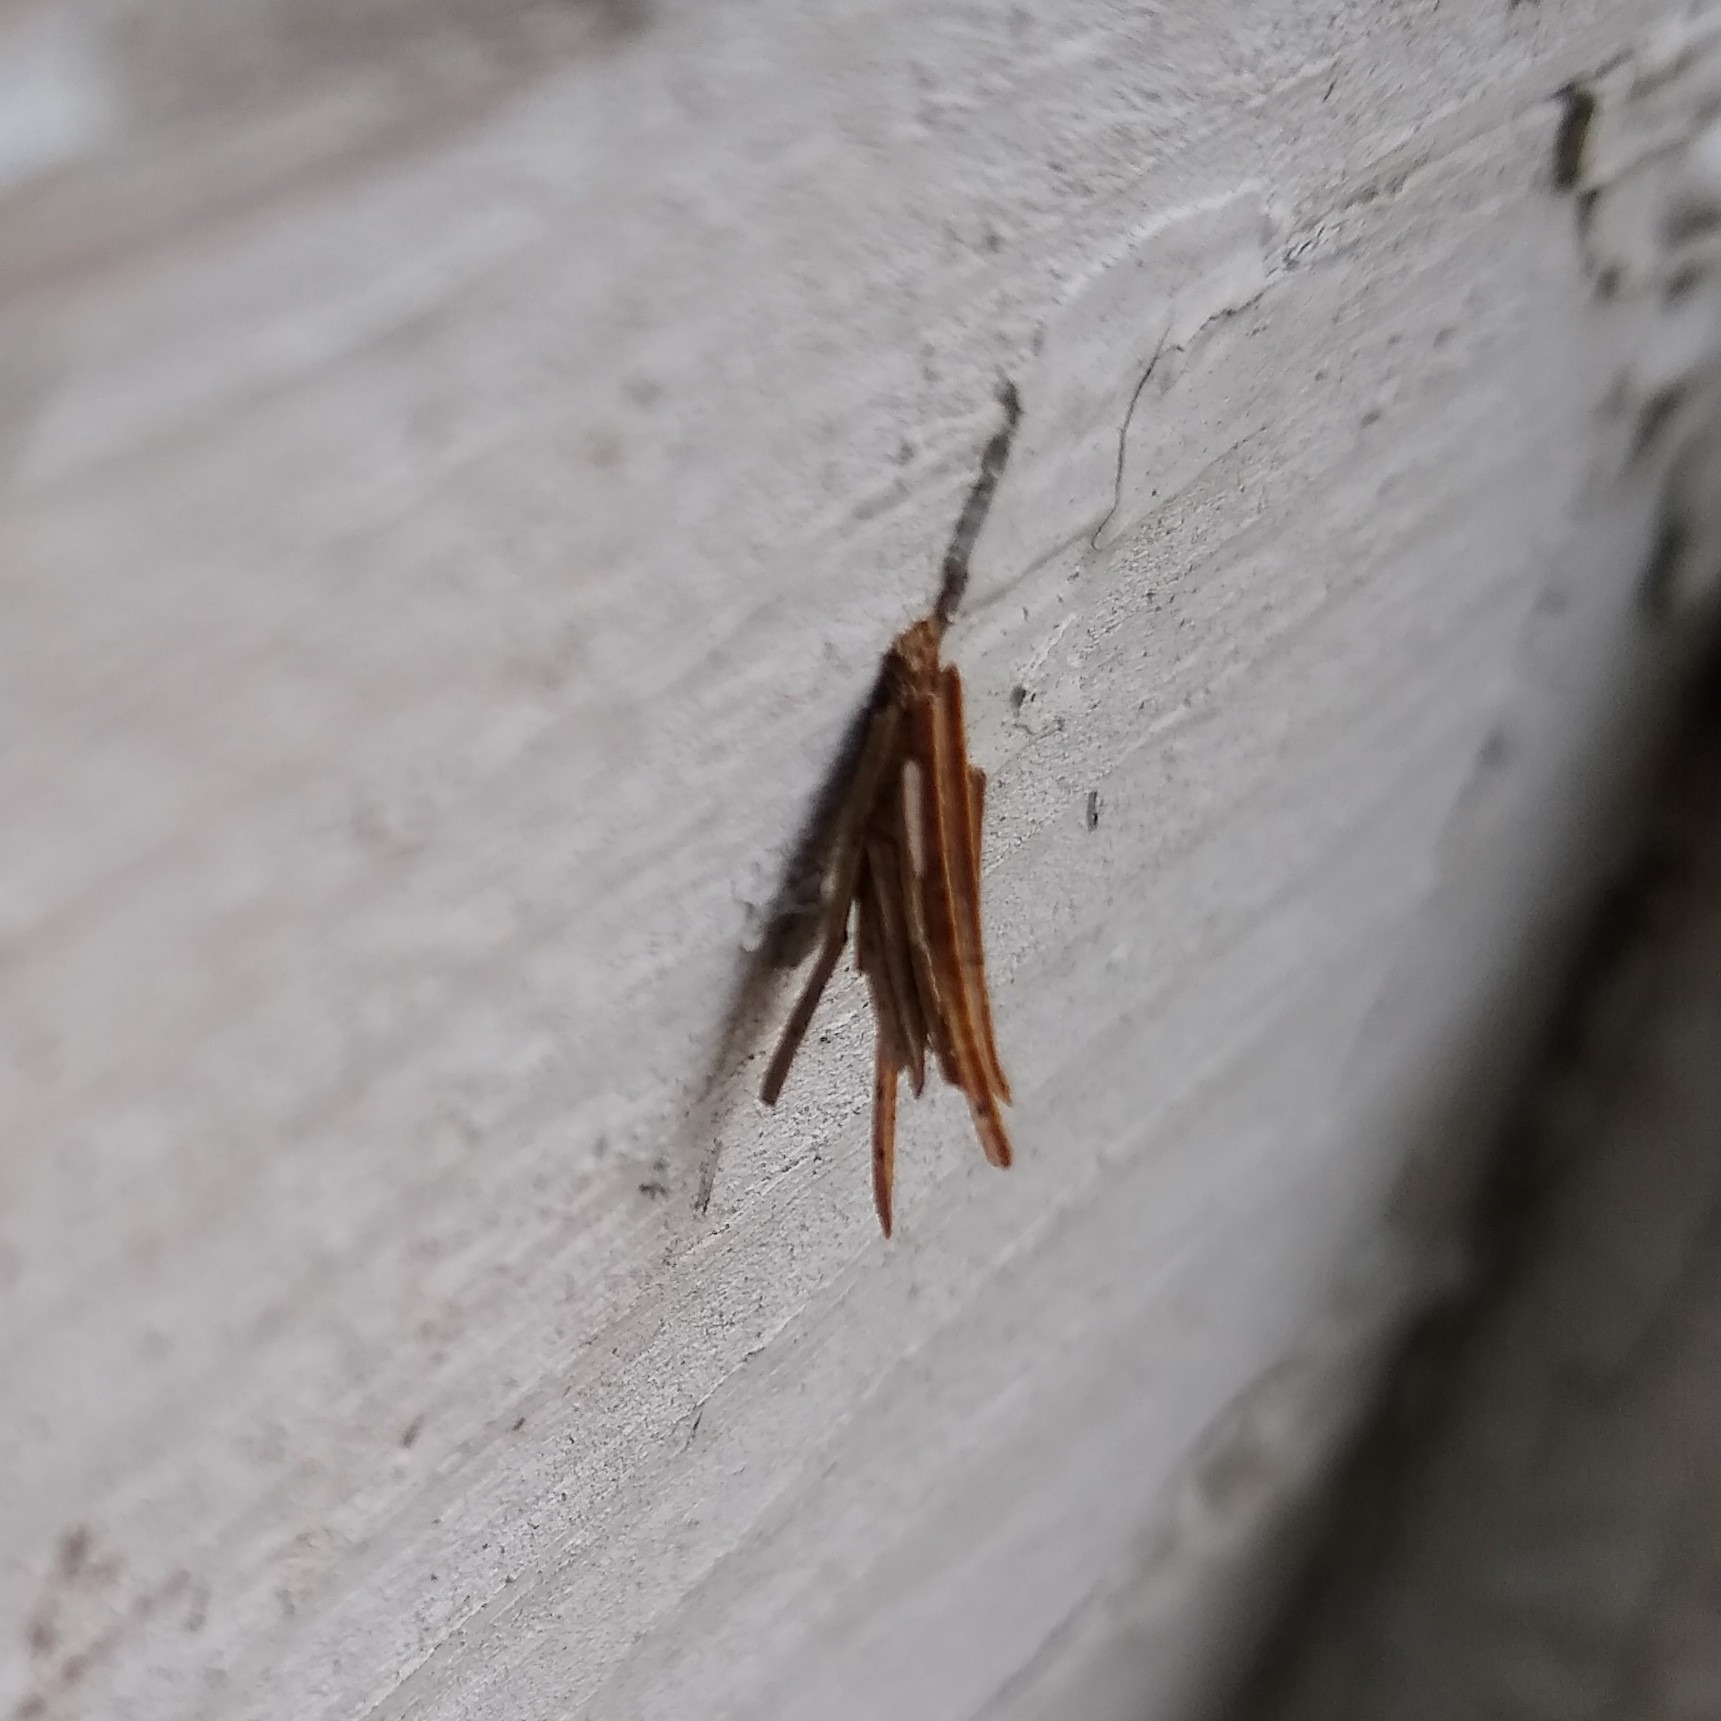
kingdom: Animalia
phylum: Arthropoda
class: Insecta
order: Lepidoptera
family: Psychidae
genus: Psyche
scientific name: Psyche casta
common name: Common sweep
